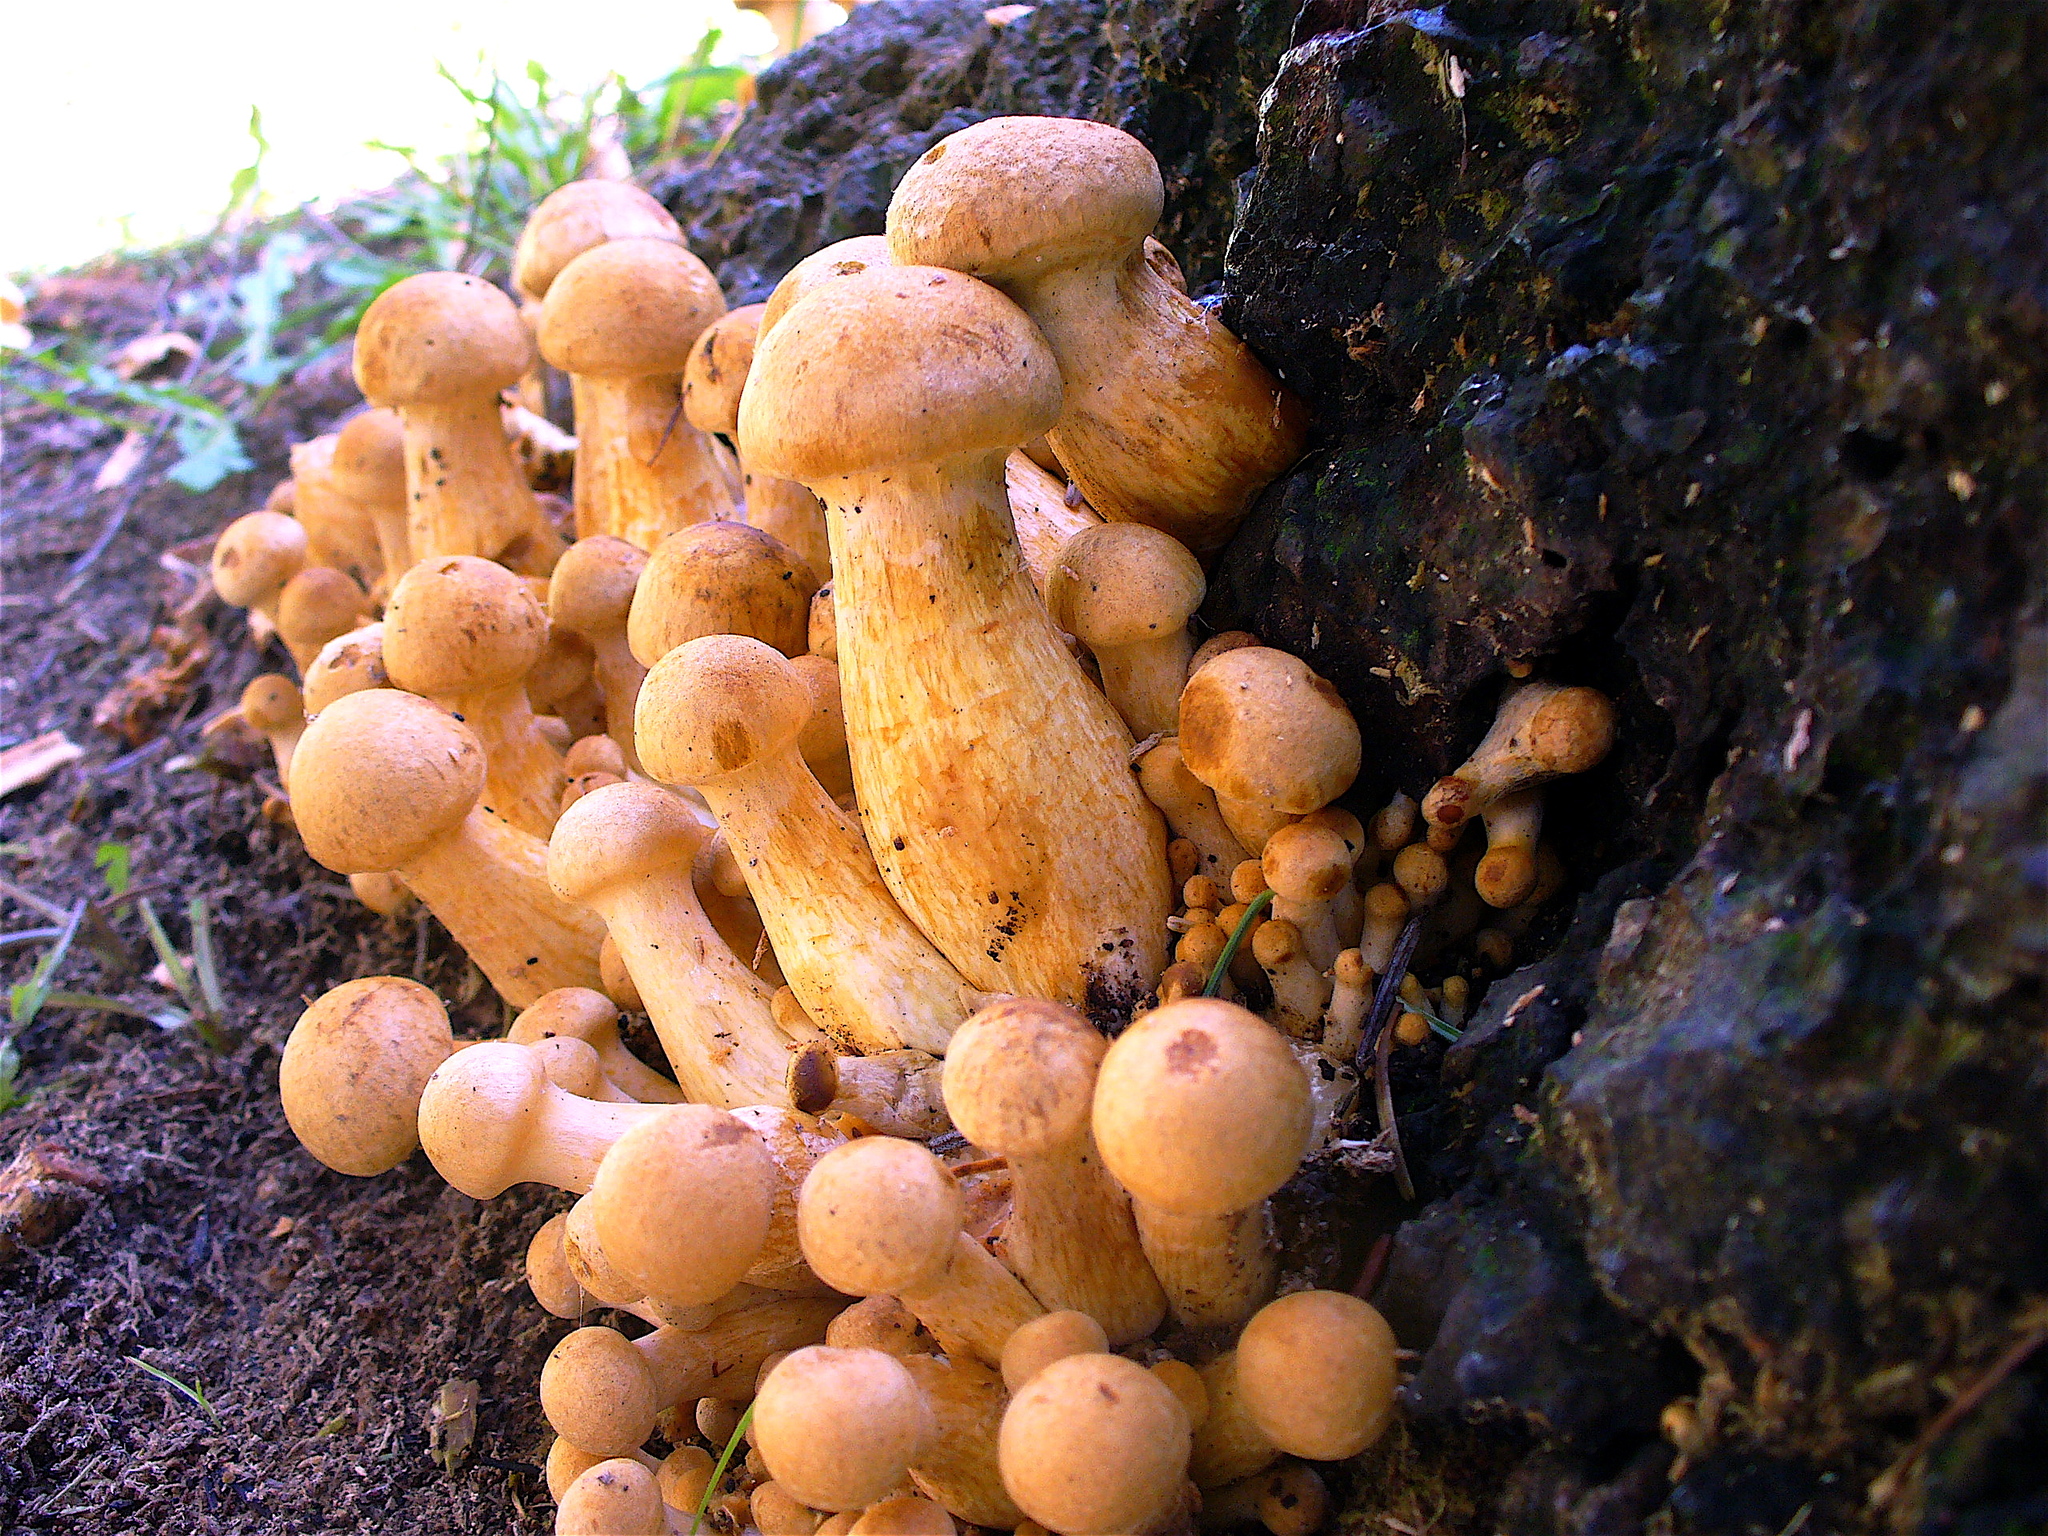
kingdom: Fungi
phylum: Basidiomycota
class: Agaricomycetes
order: Agaricales
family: Hymenogastraceae
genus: Gymnopilus
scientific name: Gymnopilus ventricosus
